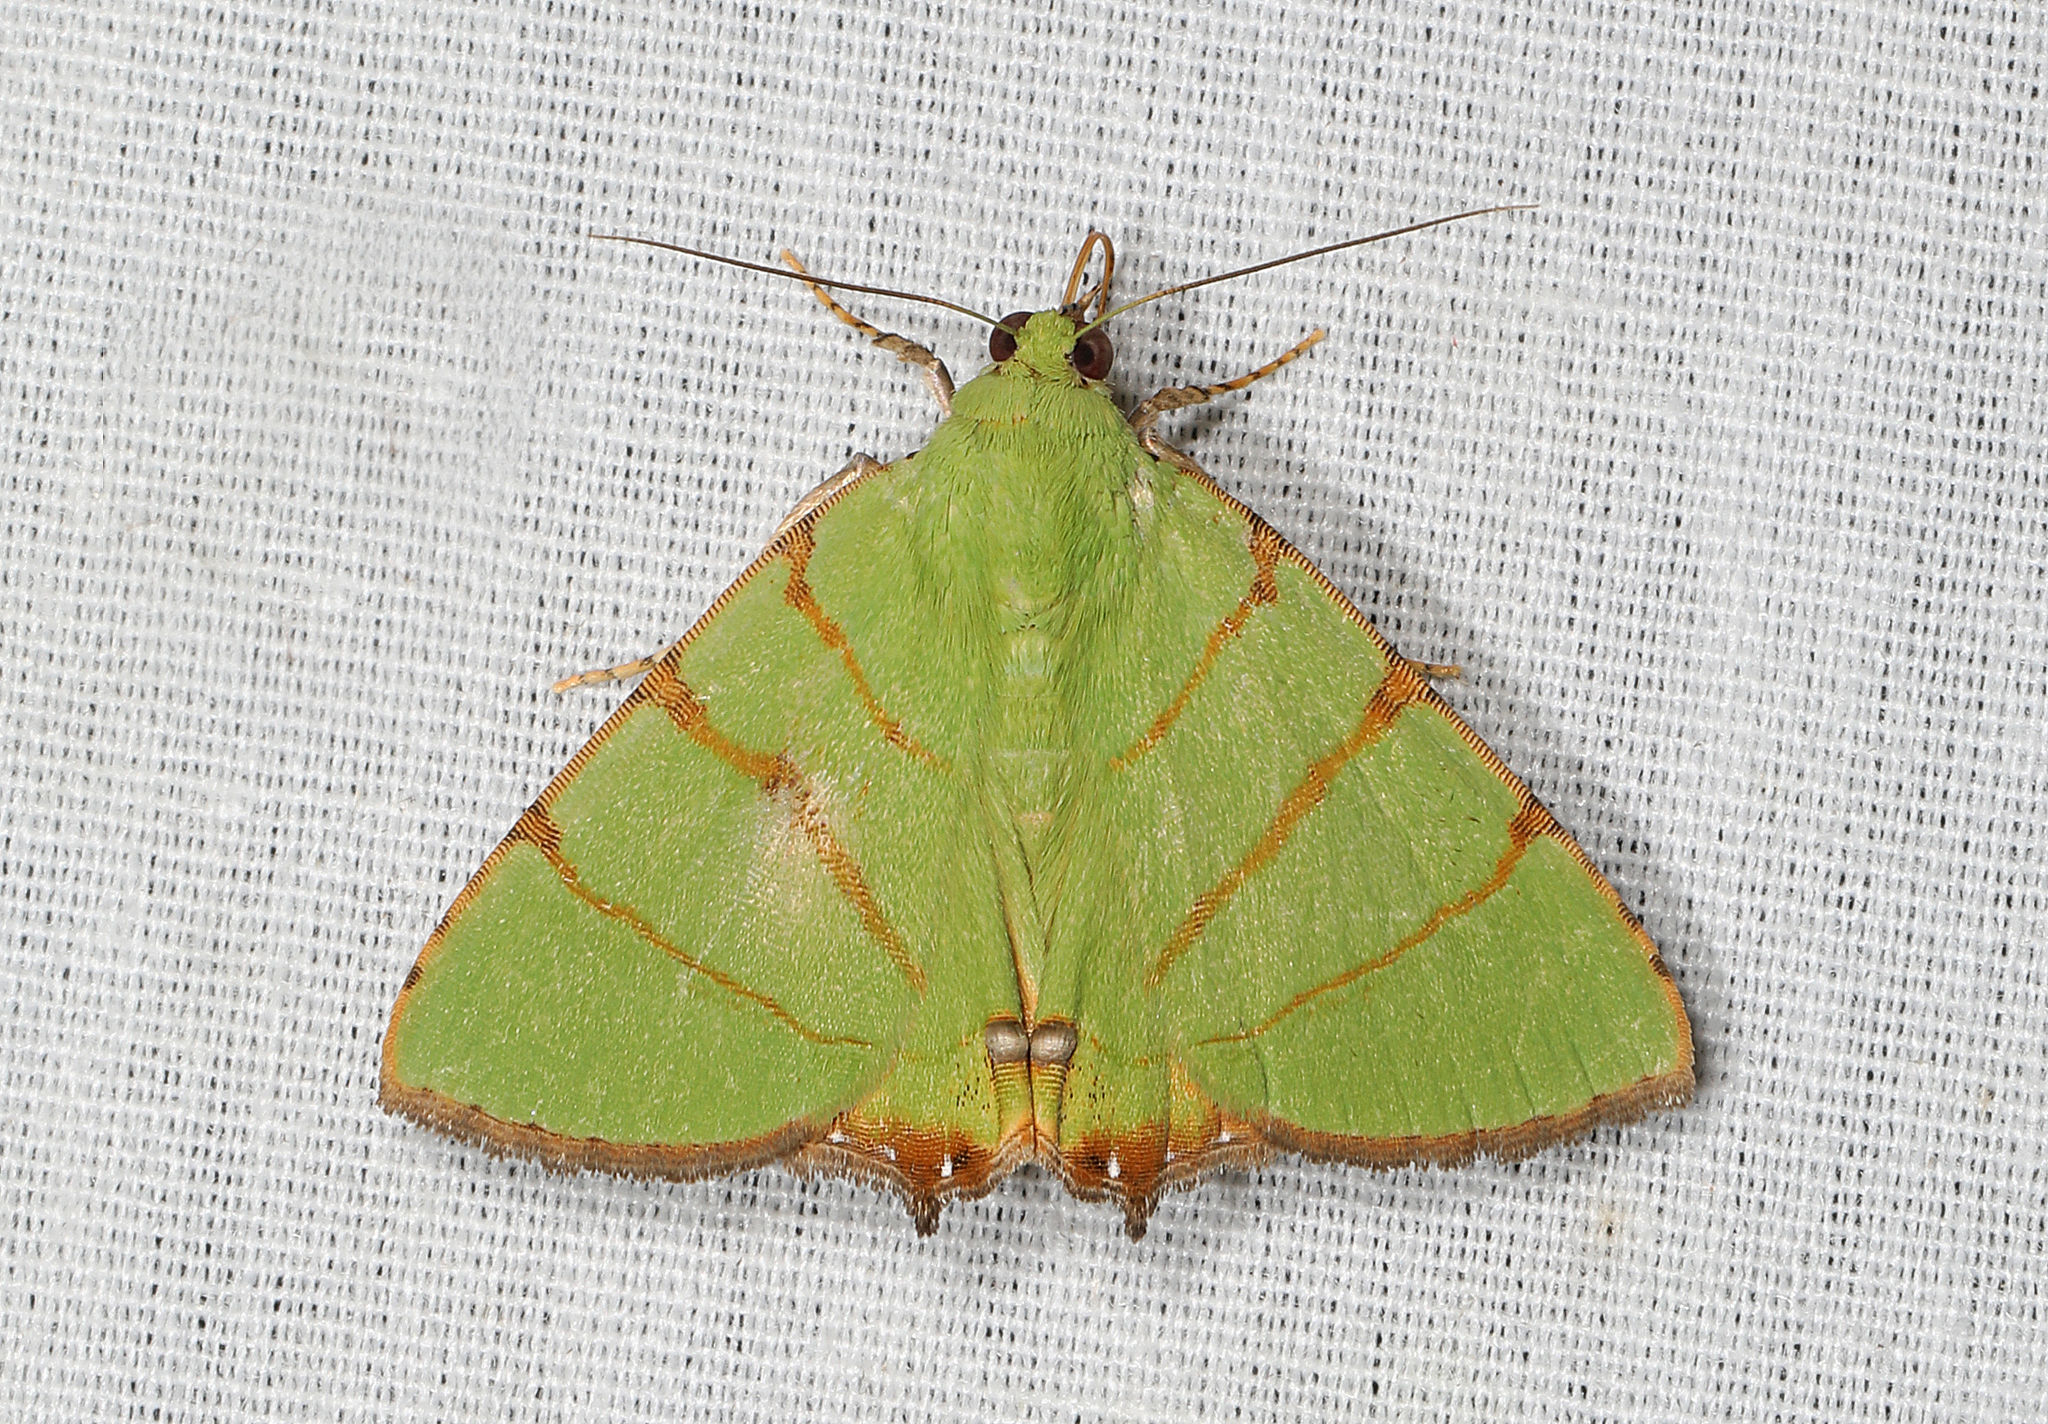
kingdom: Animalia
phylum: Arthropoda
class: Insecta
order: Lepidoptera
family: Erebidae
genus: Eulepidotis
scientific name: Eulepidotis folium
